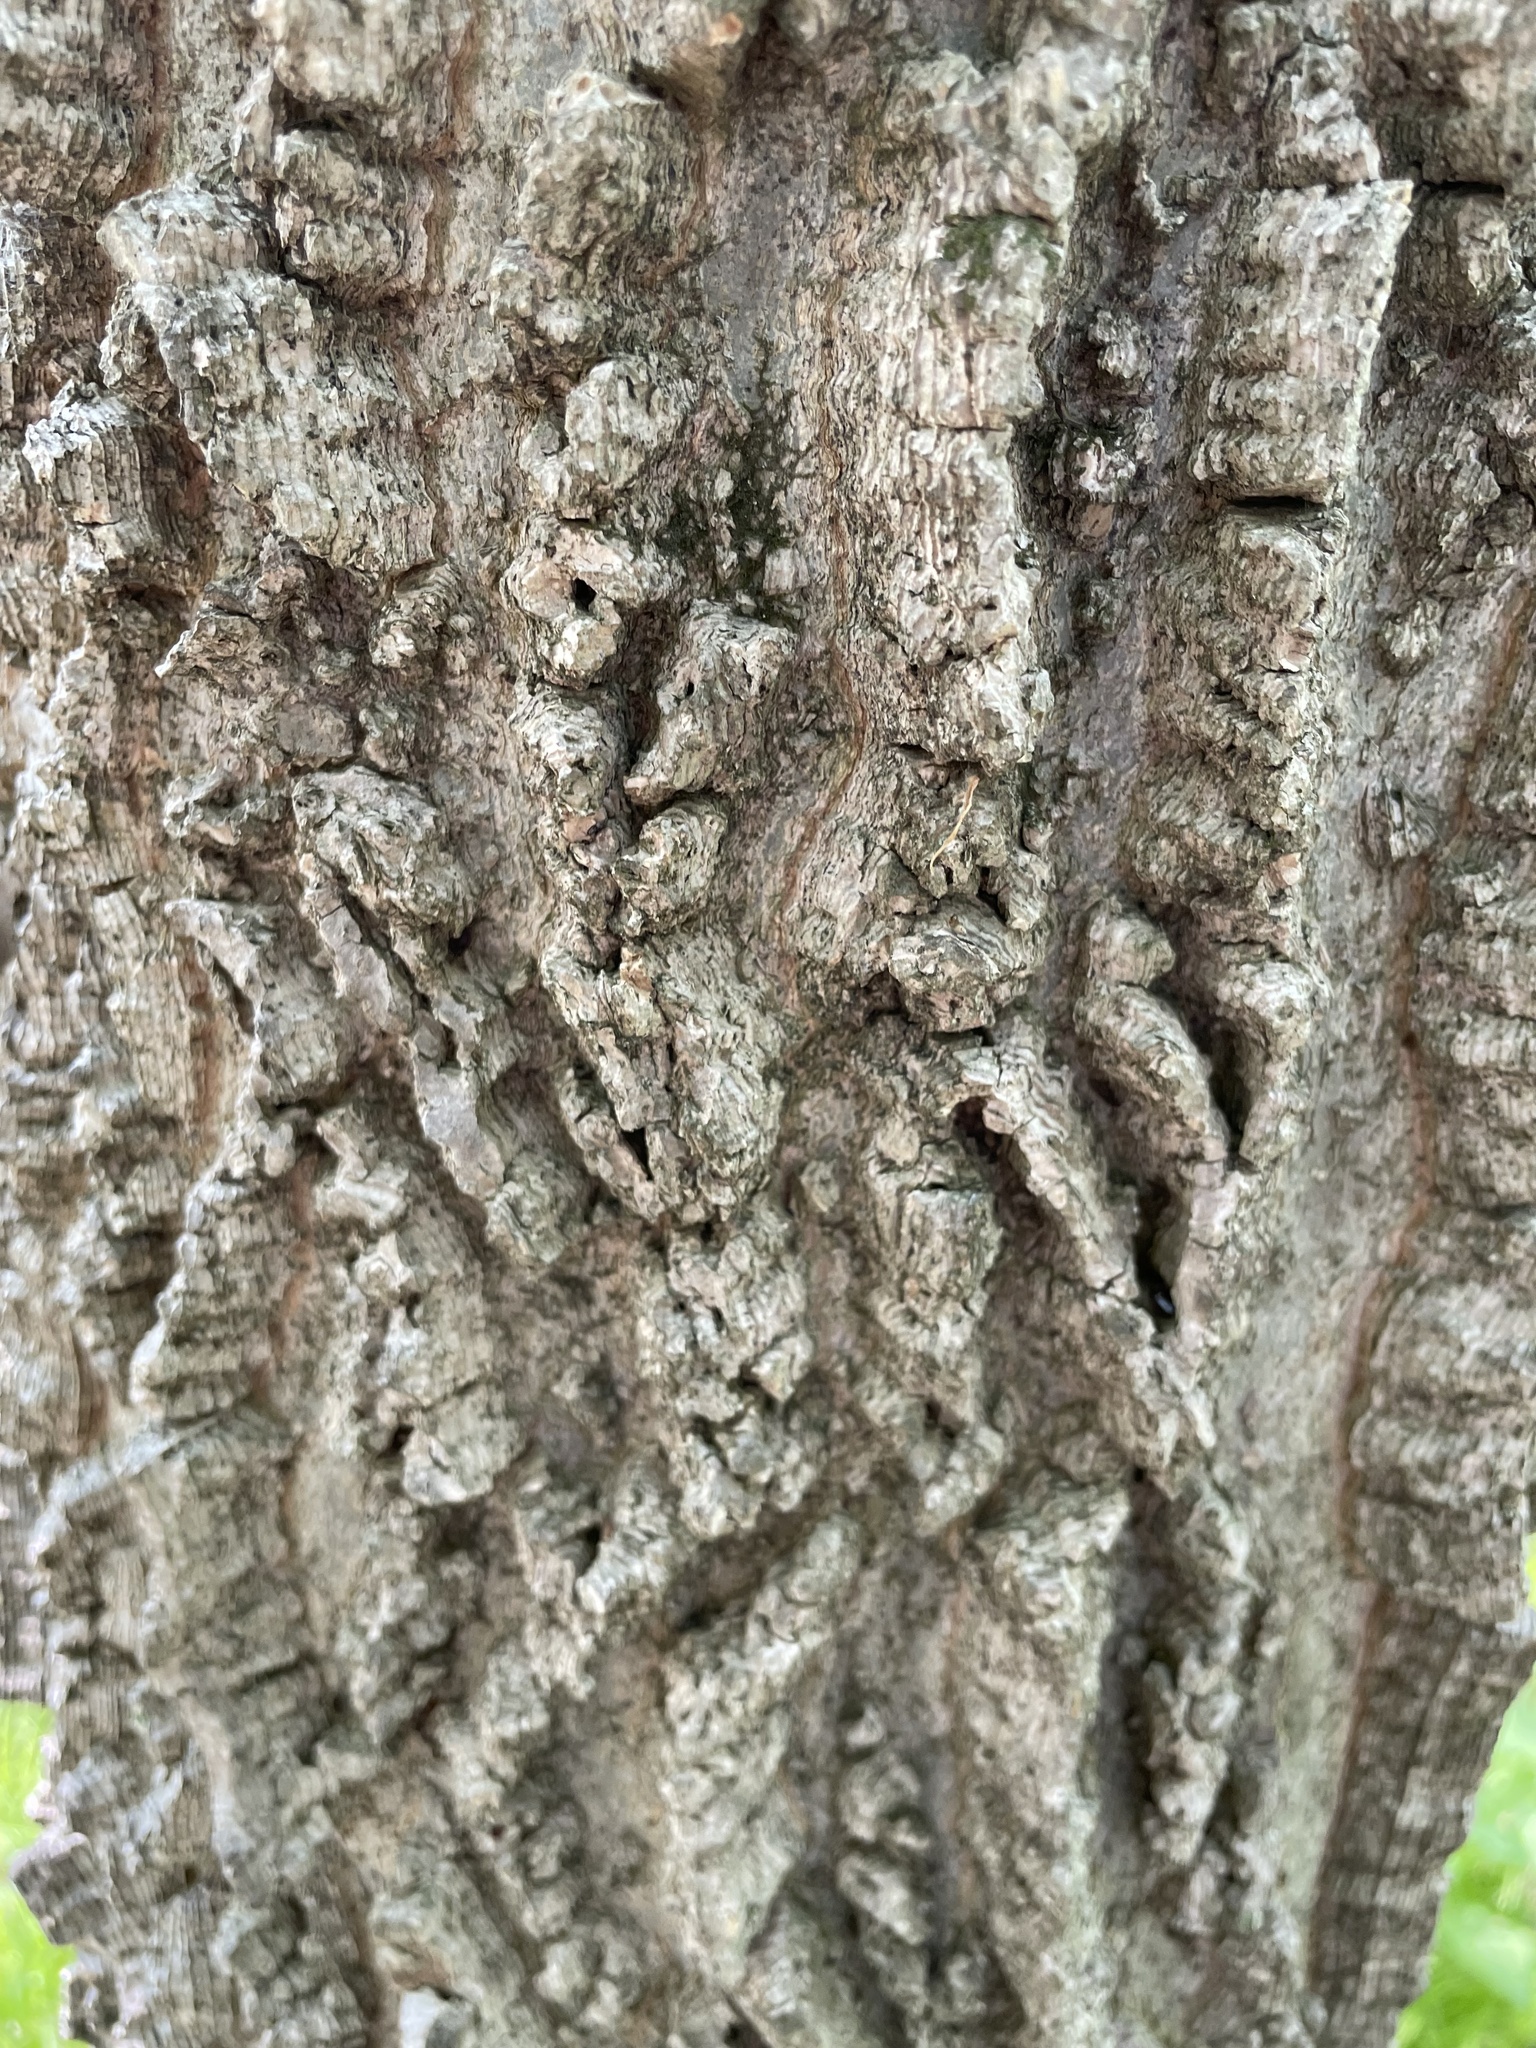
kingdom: Plantae
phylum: Tracheophyta
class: Magnoliopsida
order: Rosales
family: Cannabaceae
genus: Celtis
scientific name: Celtis occidentalis
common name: Common hackberry
